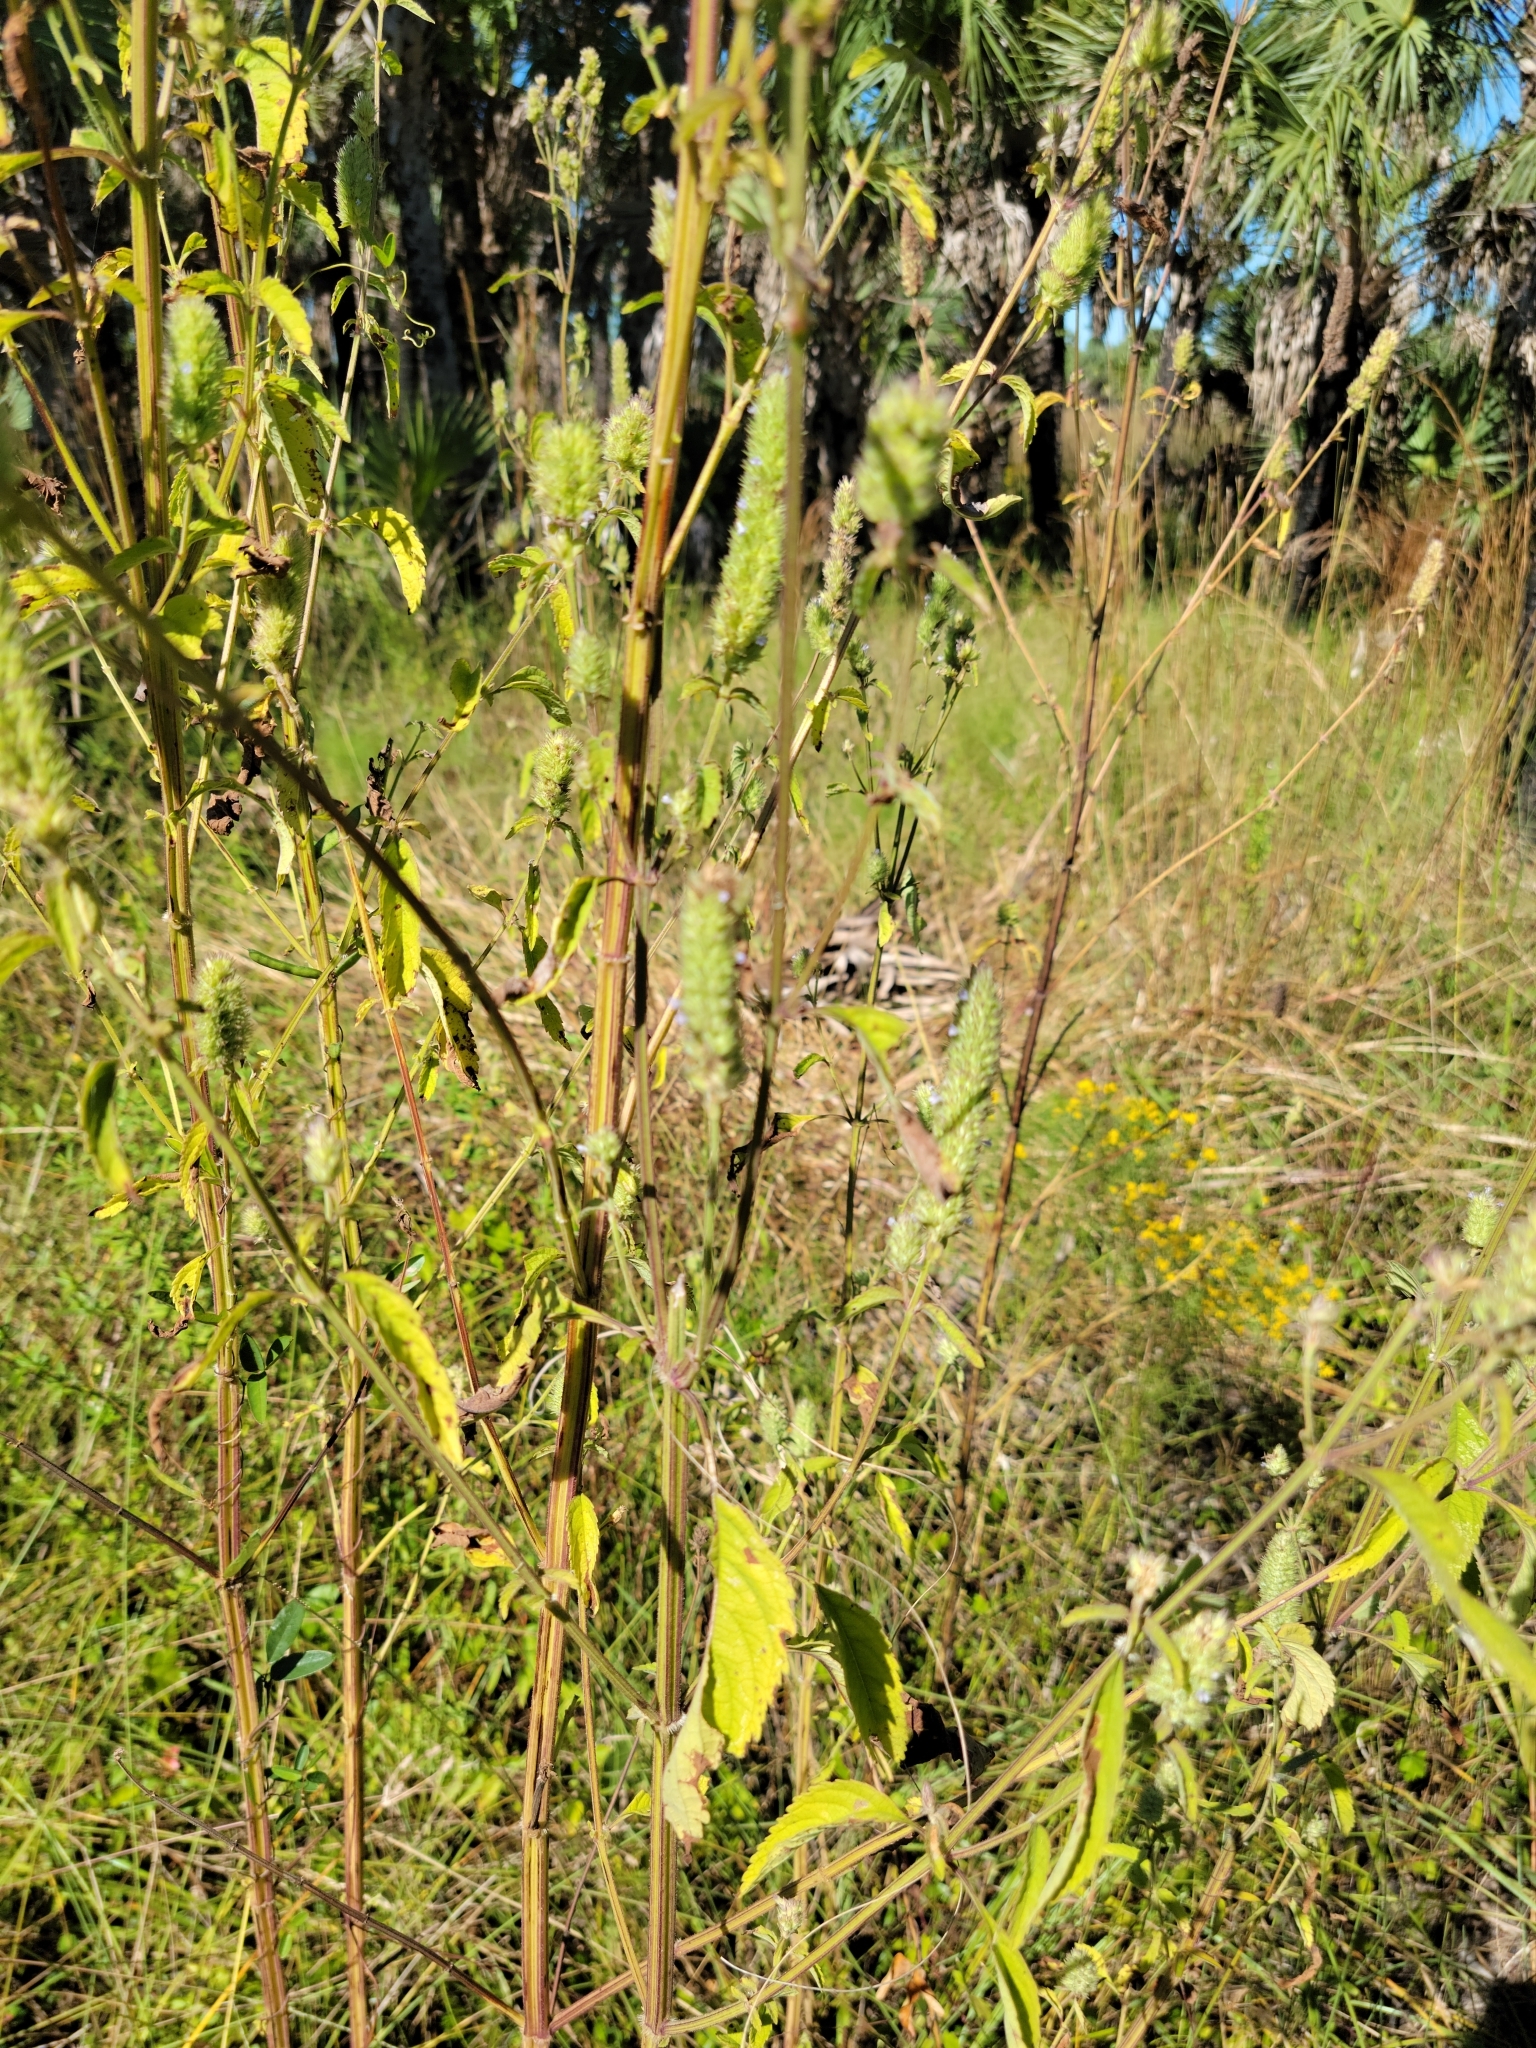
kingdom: Plantae
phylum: Tracheophyta
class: Magnoliopsida
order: Lamiales
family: Lamiaceae
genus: Cantinoa
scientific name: Cantinoa americana
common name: Black-sesame
